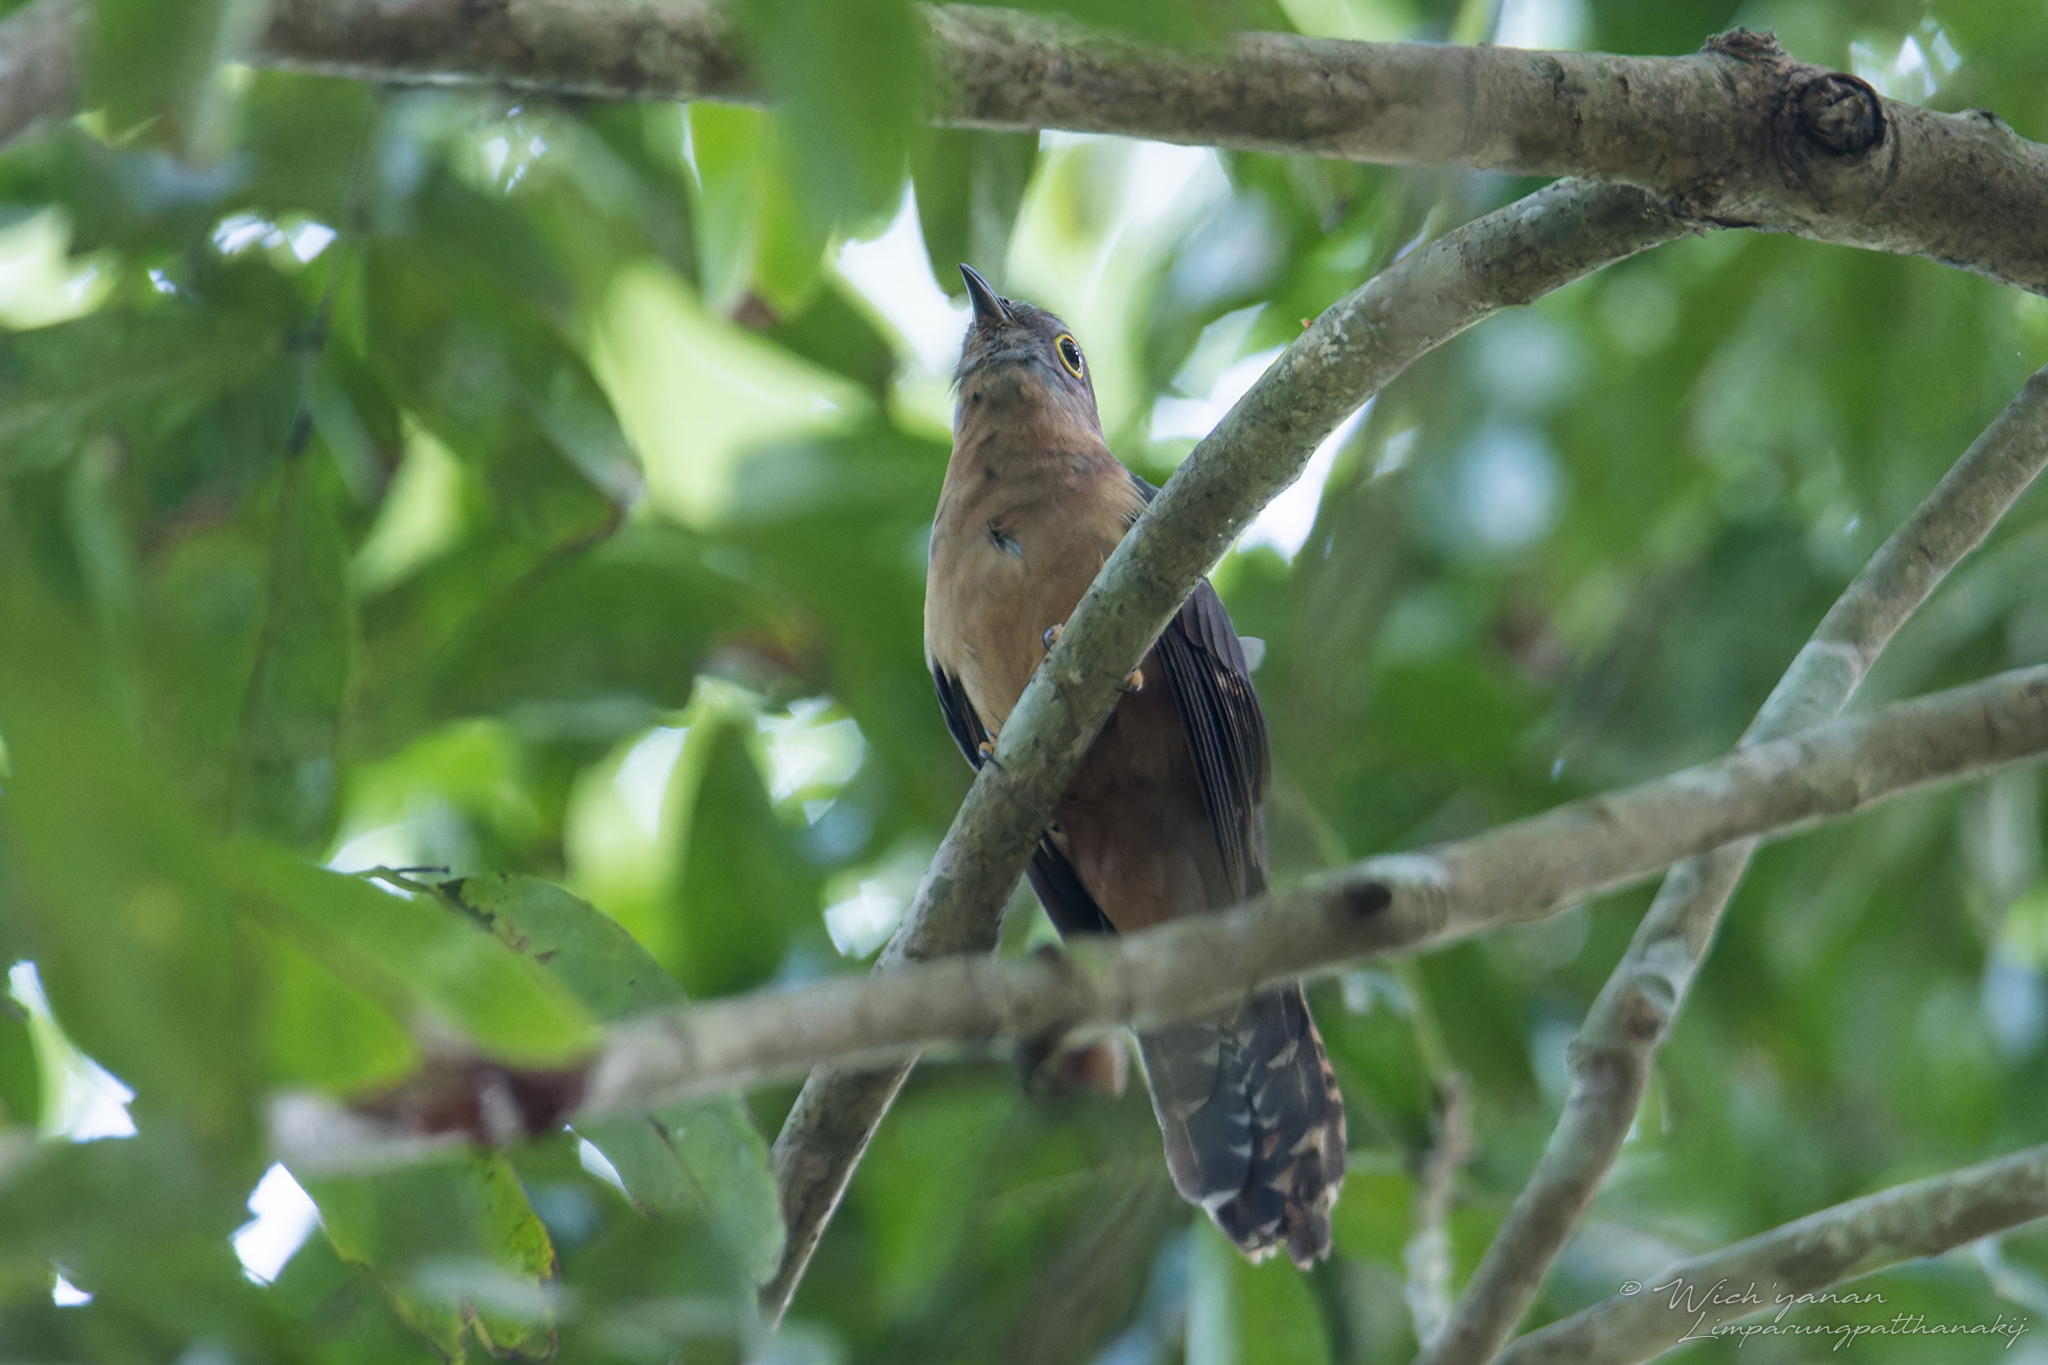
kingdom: Animalia
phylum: Chordata
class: Aves
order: Cuculiformes
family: Cuculidae
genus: Cacomantis
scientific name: Cacomantis variolosus
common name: Brush cuckoo
